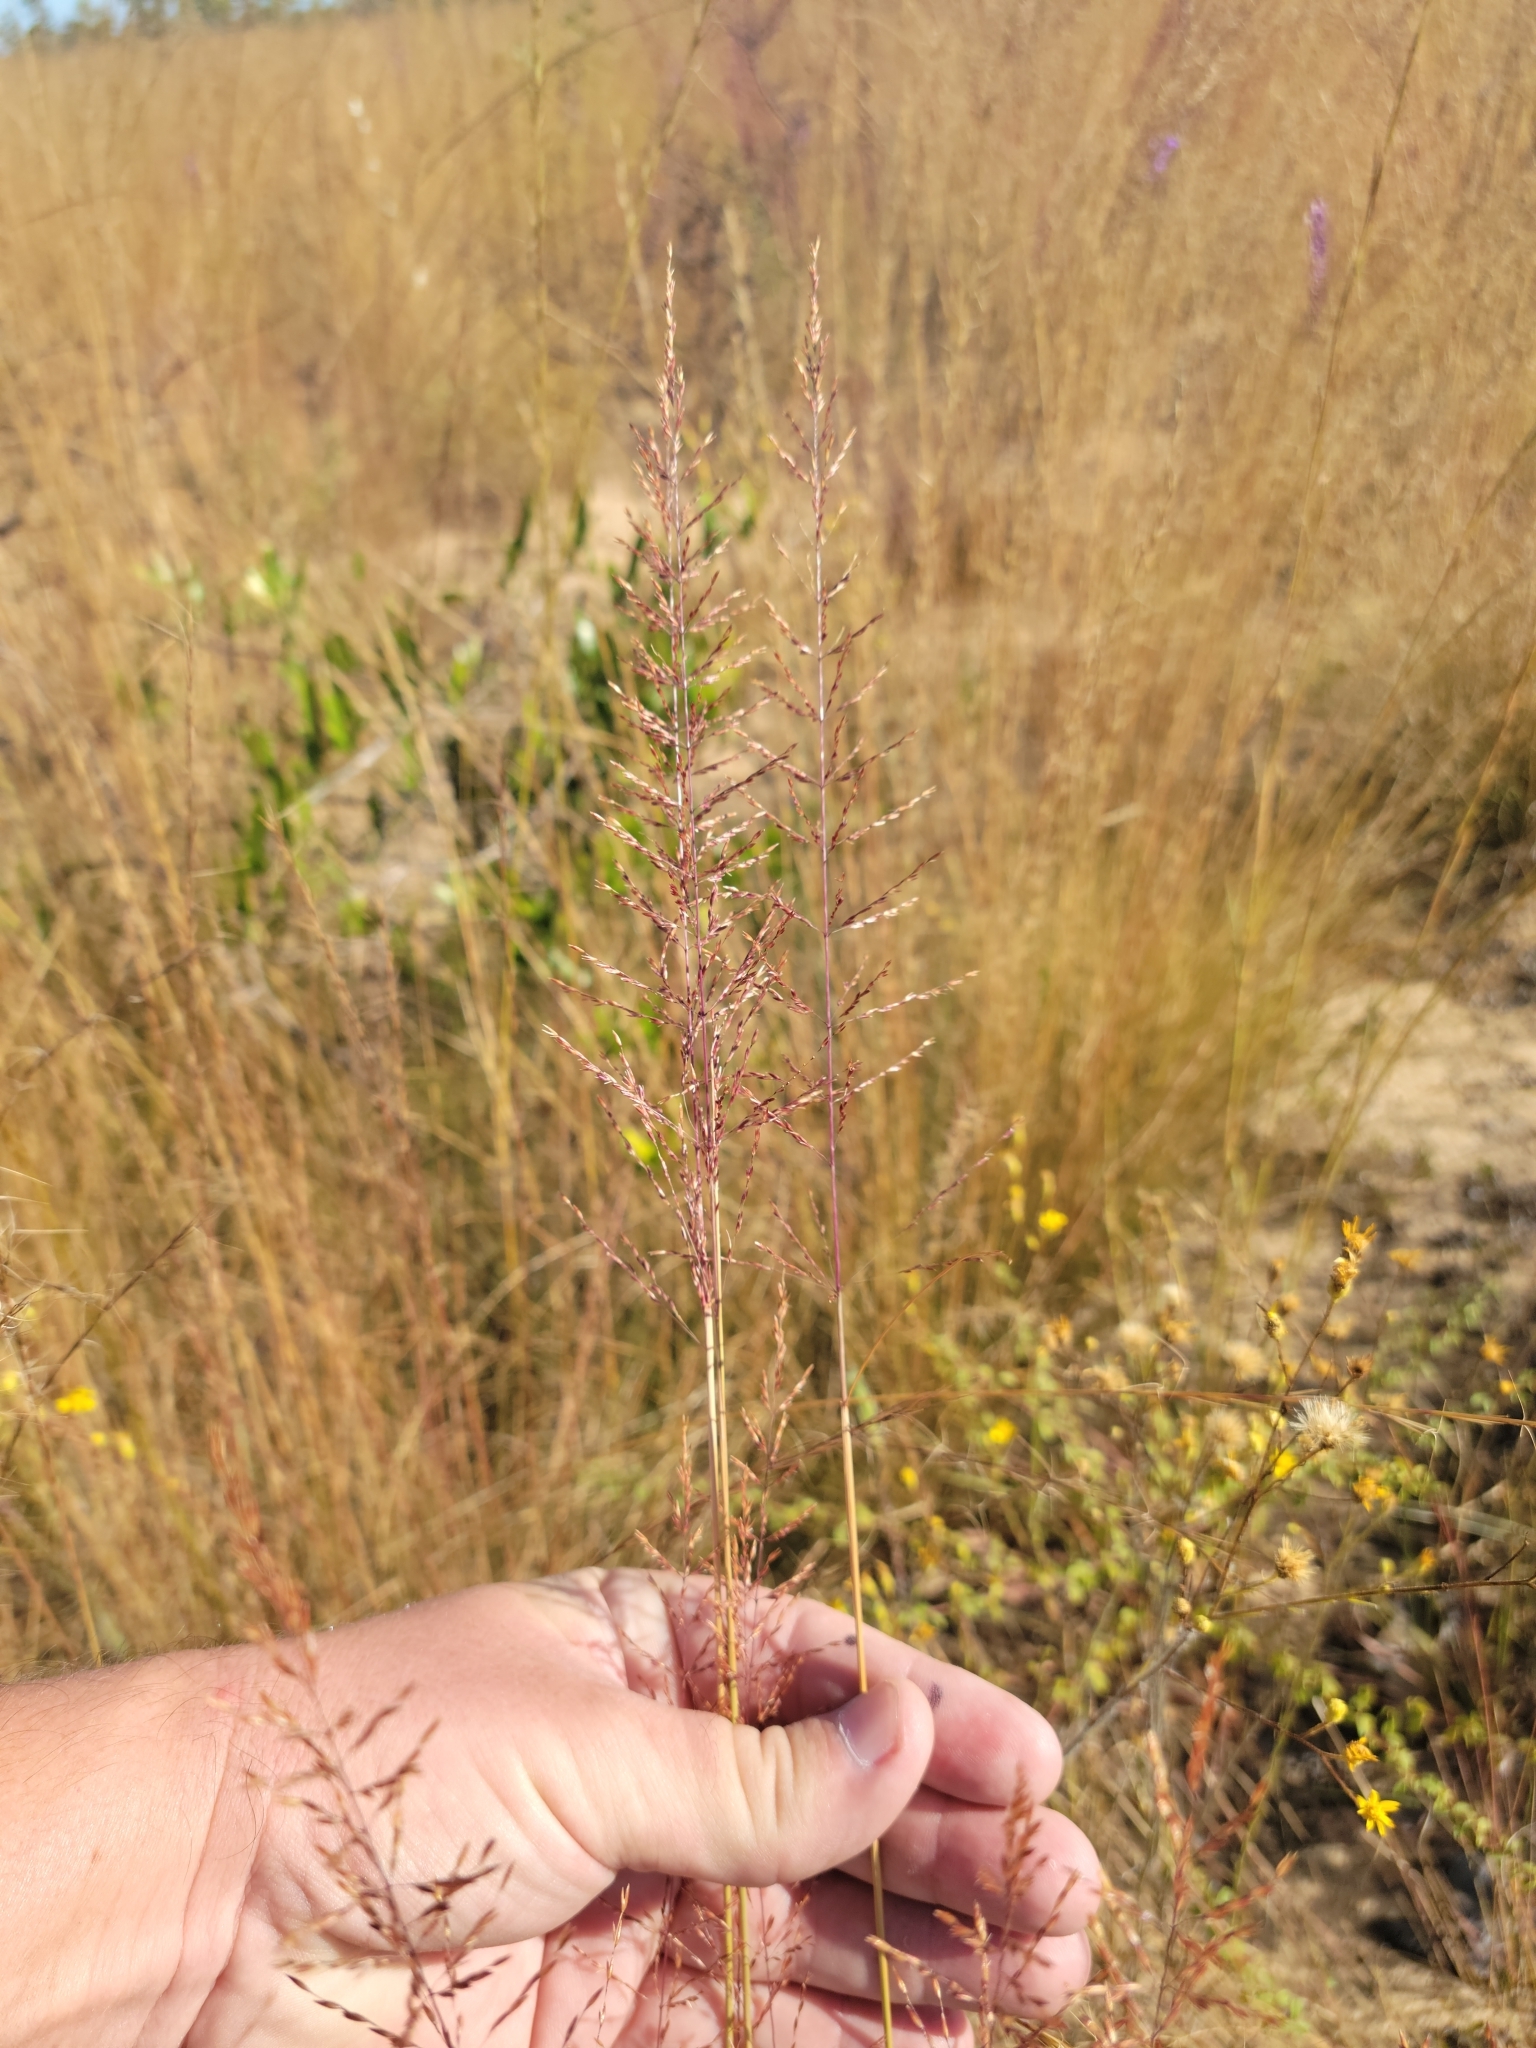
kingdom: Plantae
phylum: Tracheophyta
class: Liliopsida
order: Poales
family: Poaceae
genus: Sporobolus
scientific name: Sporobolus junceus
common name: Lizard grass
